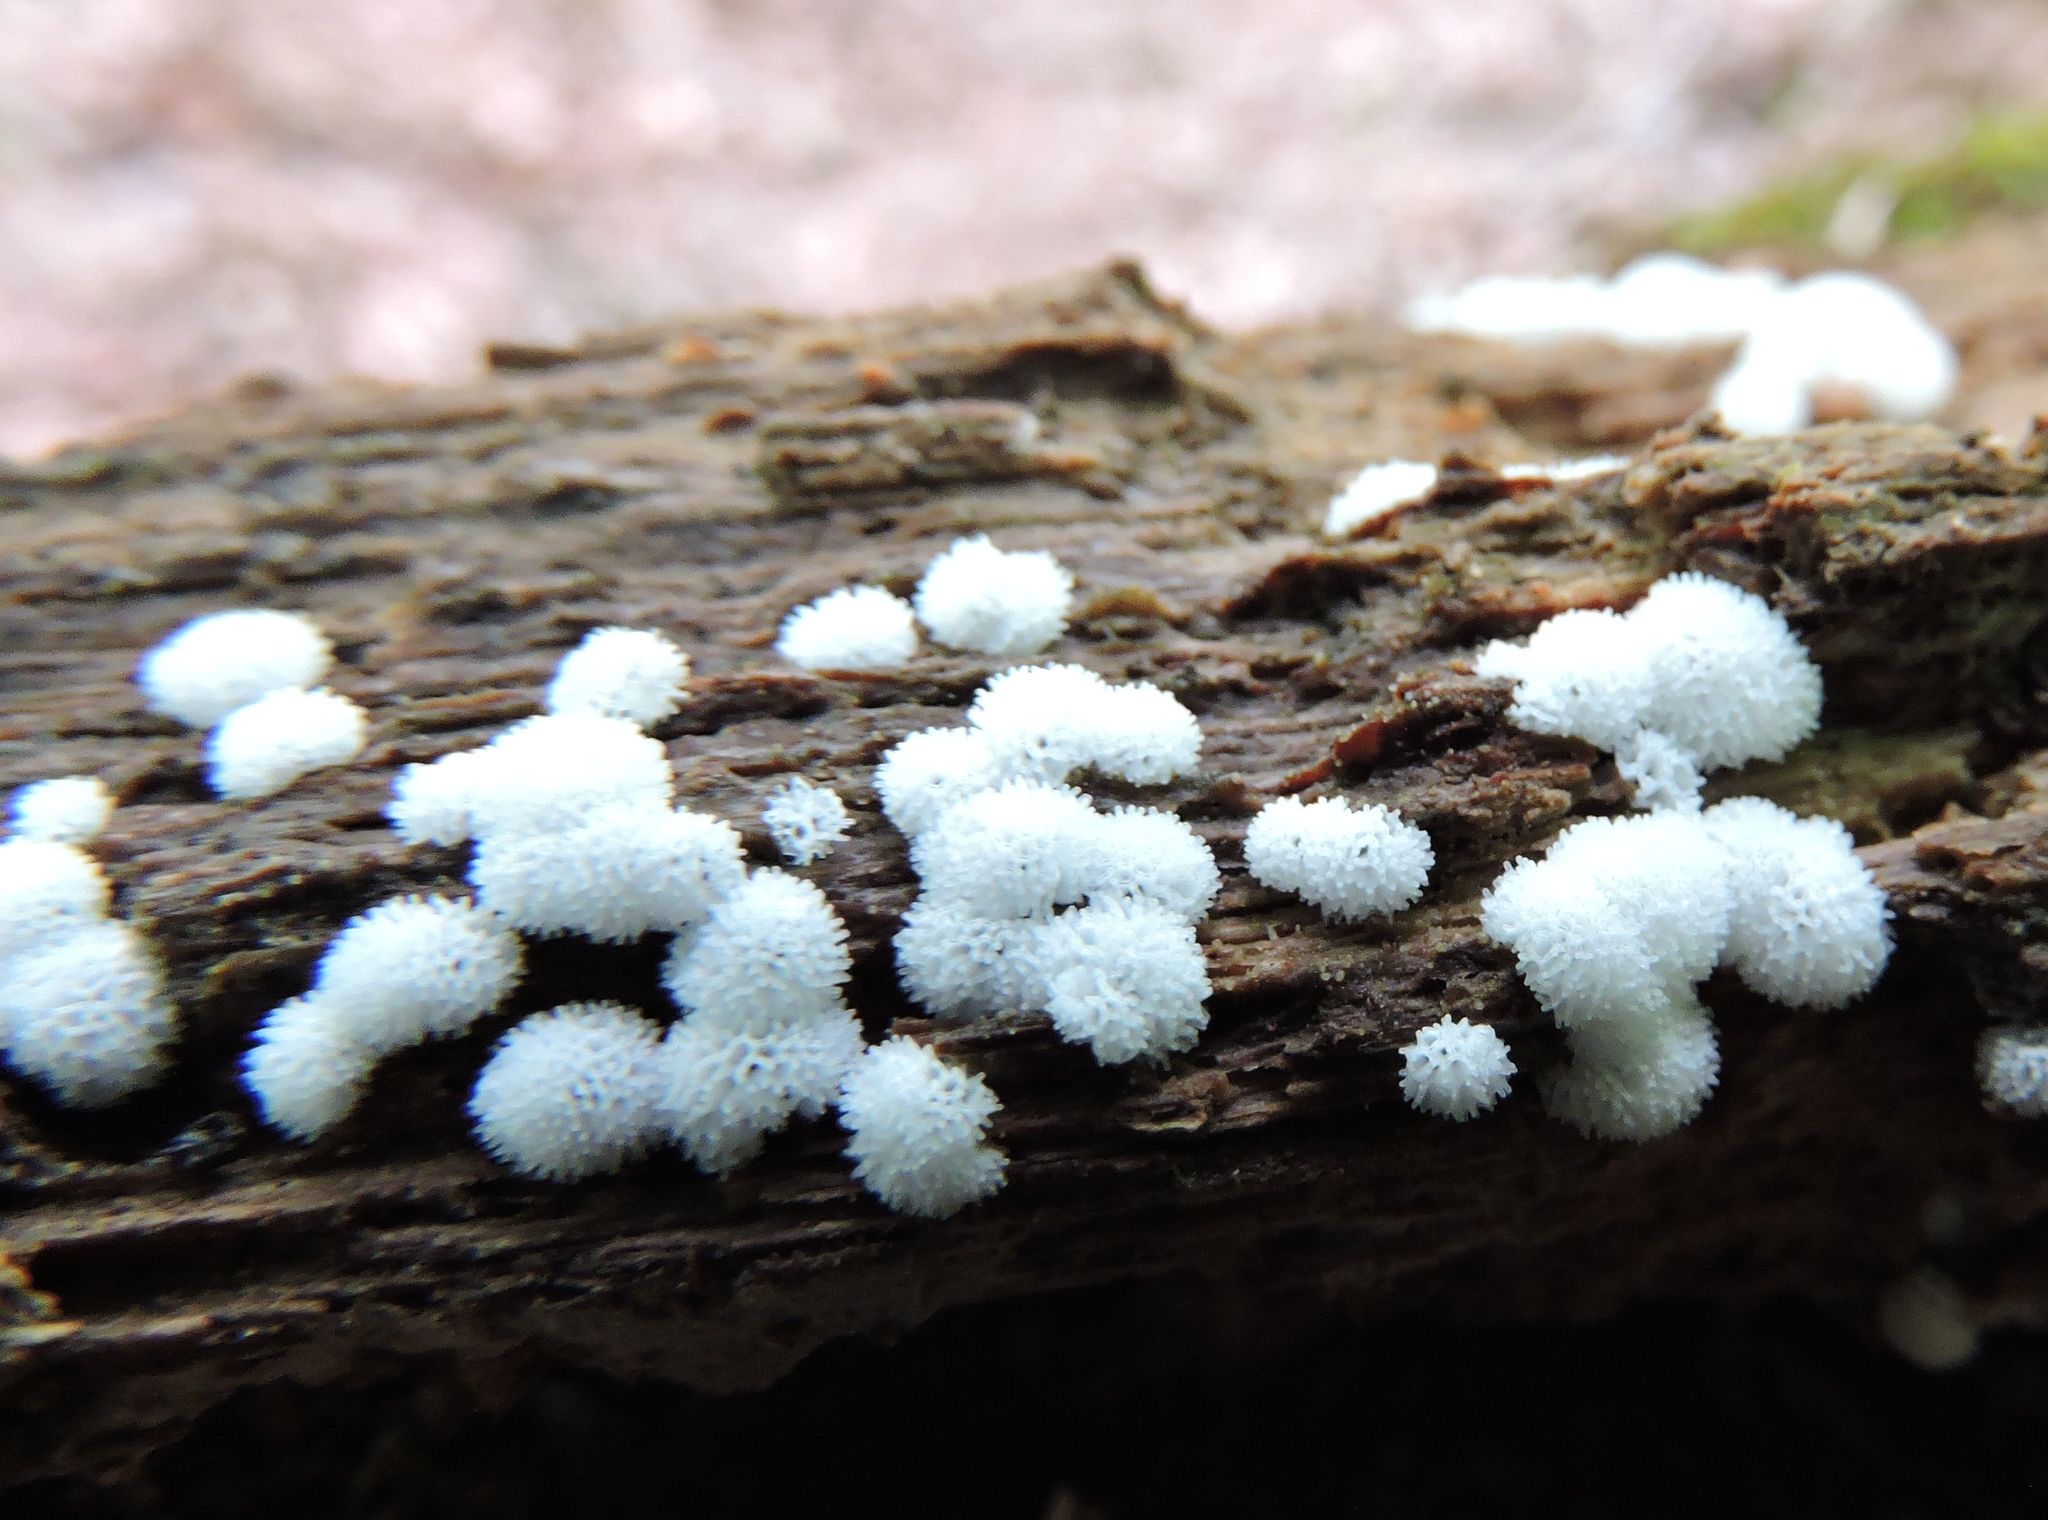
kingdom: Protozoa
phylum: Mycetozoa
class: Protosteliomycetes
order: Ceratiomyxales
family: Ceratiomyxaceae
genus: Ceratiomyxa
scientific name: Ceratiomyxa fruticulosa
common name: Honeycomb coral slime mold
